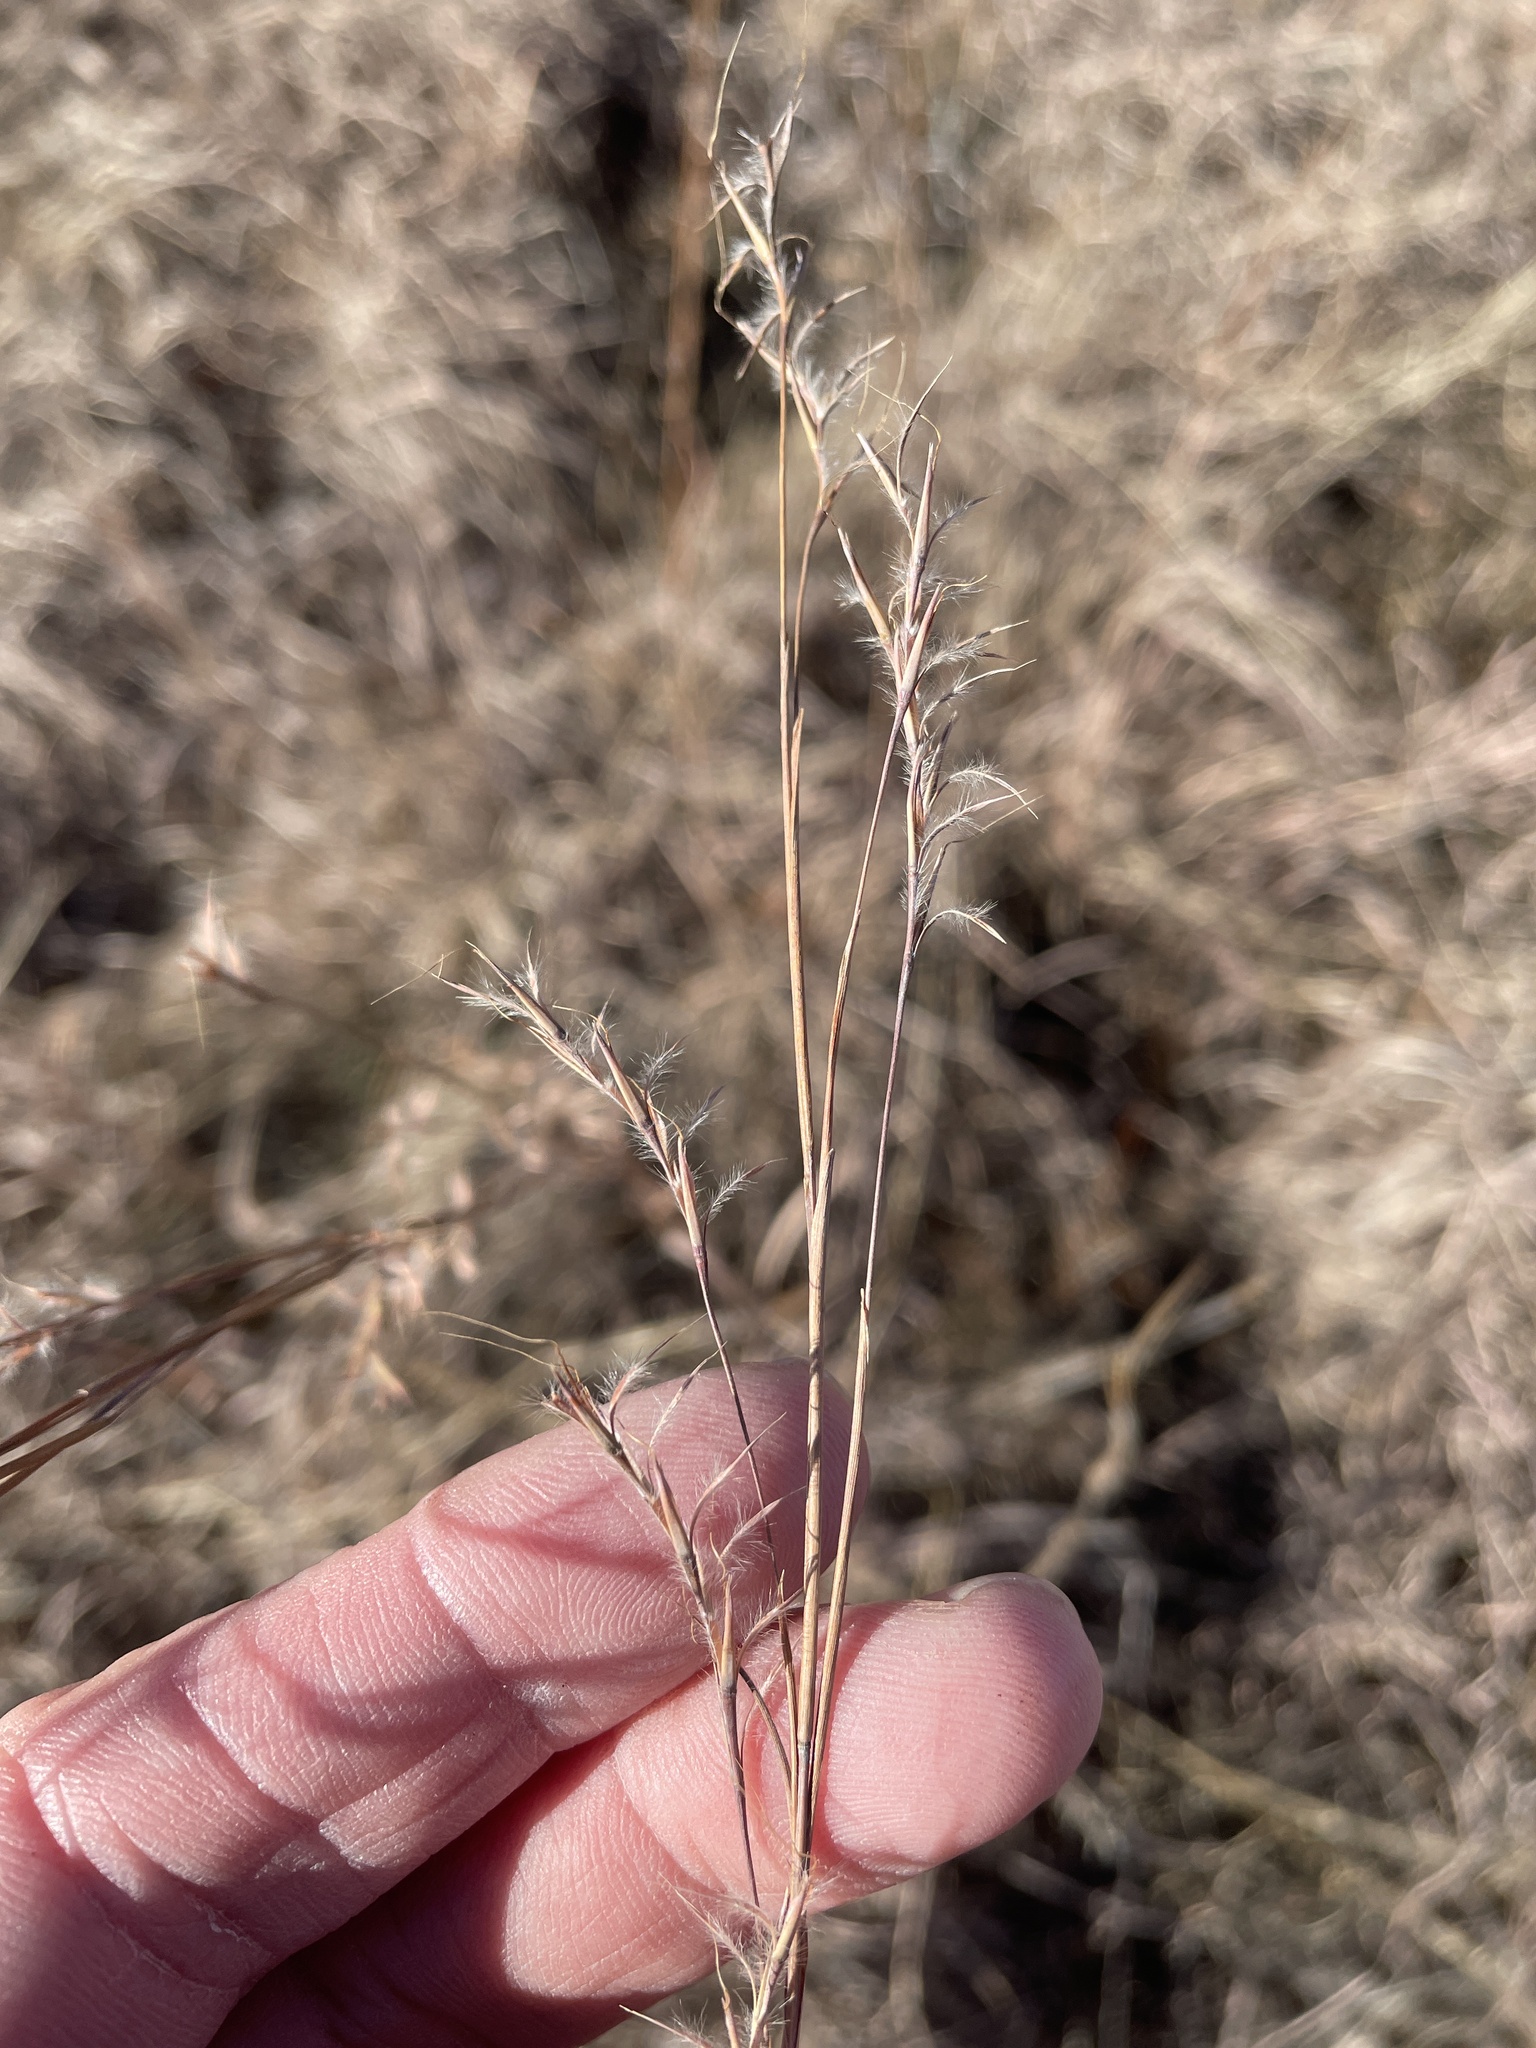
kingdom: Plantae
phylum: Tracheophyta
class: Liliopsida
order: Poales
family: Poaceae
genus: Schizachyrium
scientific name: Schizachyrium scoparium
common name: Little bluestem
